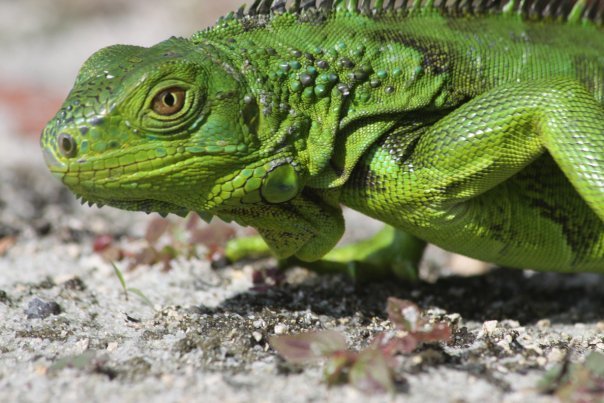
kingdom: Animalia
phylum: Chordata
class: Squamata
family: Iguanidae
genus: Iguana
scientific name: Iguana iguana
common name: Green iguana
